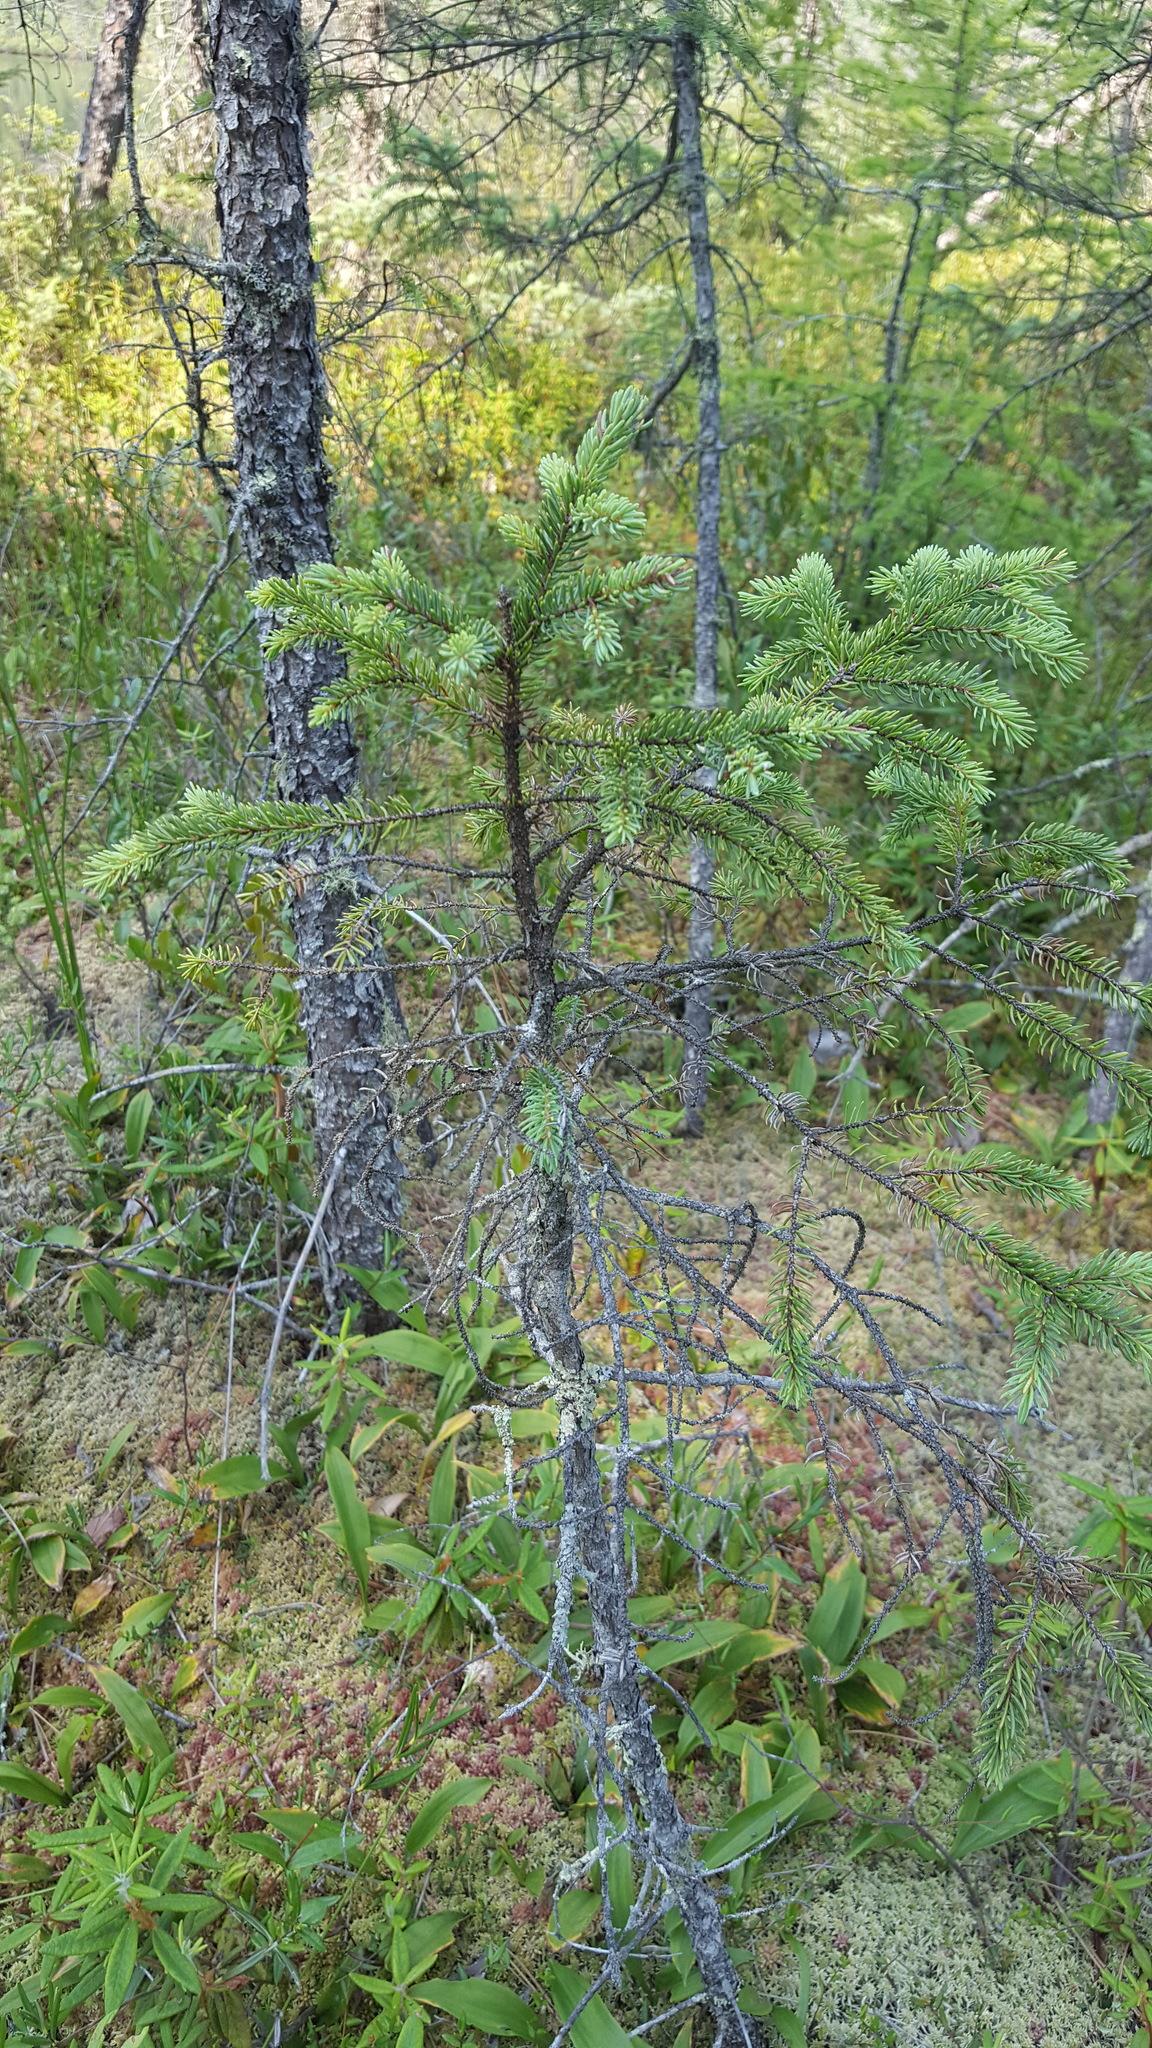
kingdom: Plantae
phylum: Tracheophyta
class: Pinopsida
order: Pinales
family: Pinaceae
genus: Picea
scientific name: Picea mariana
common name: Black spruce
